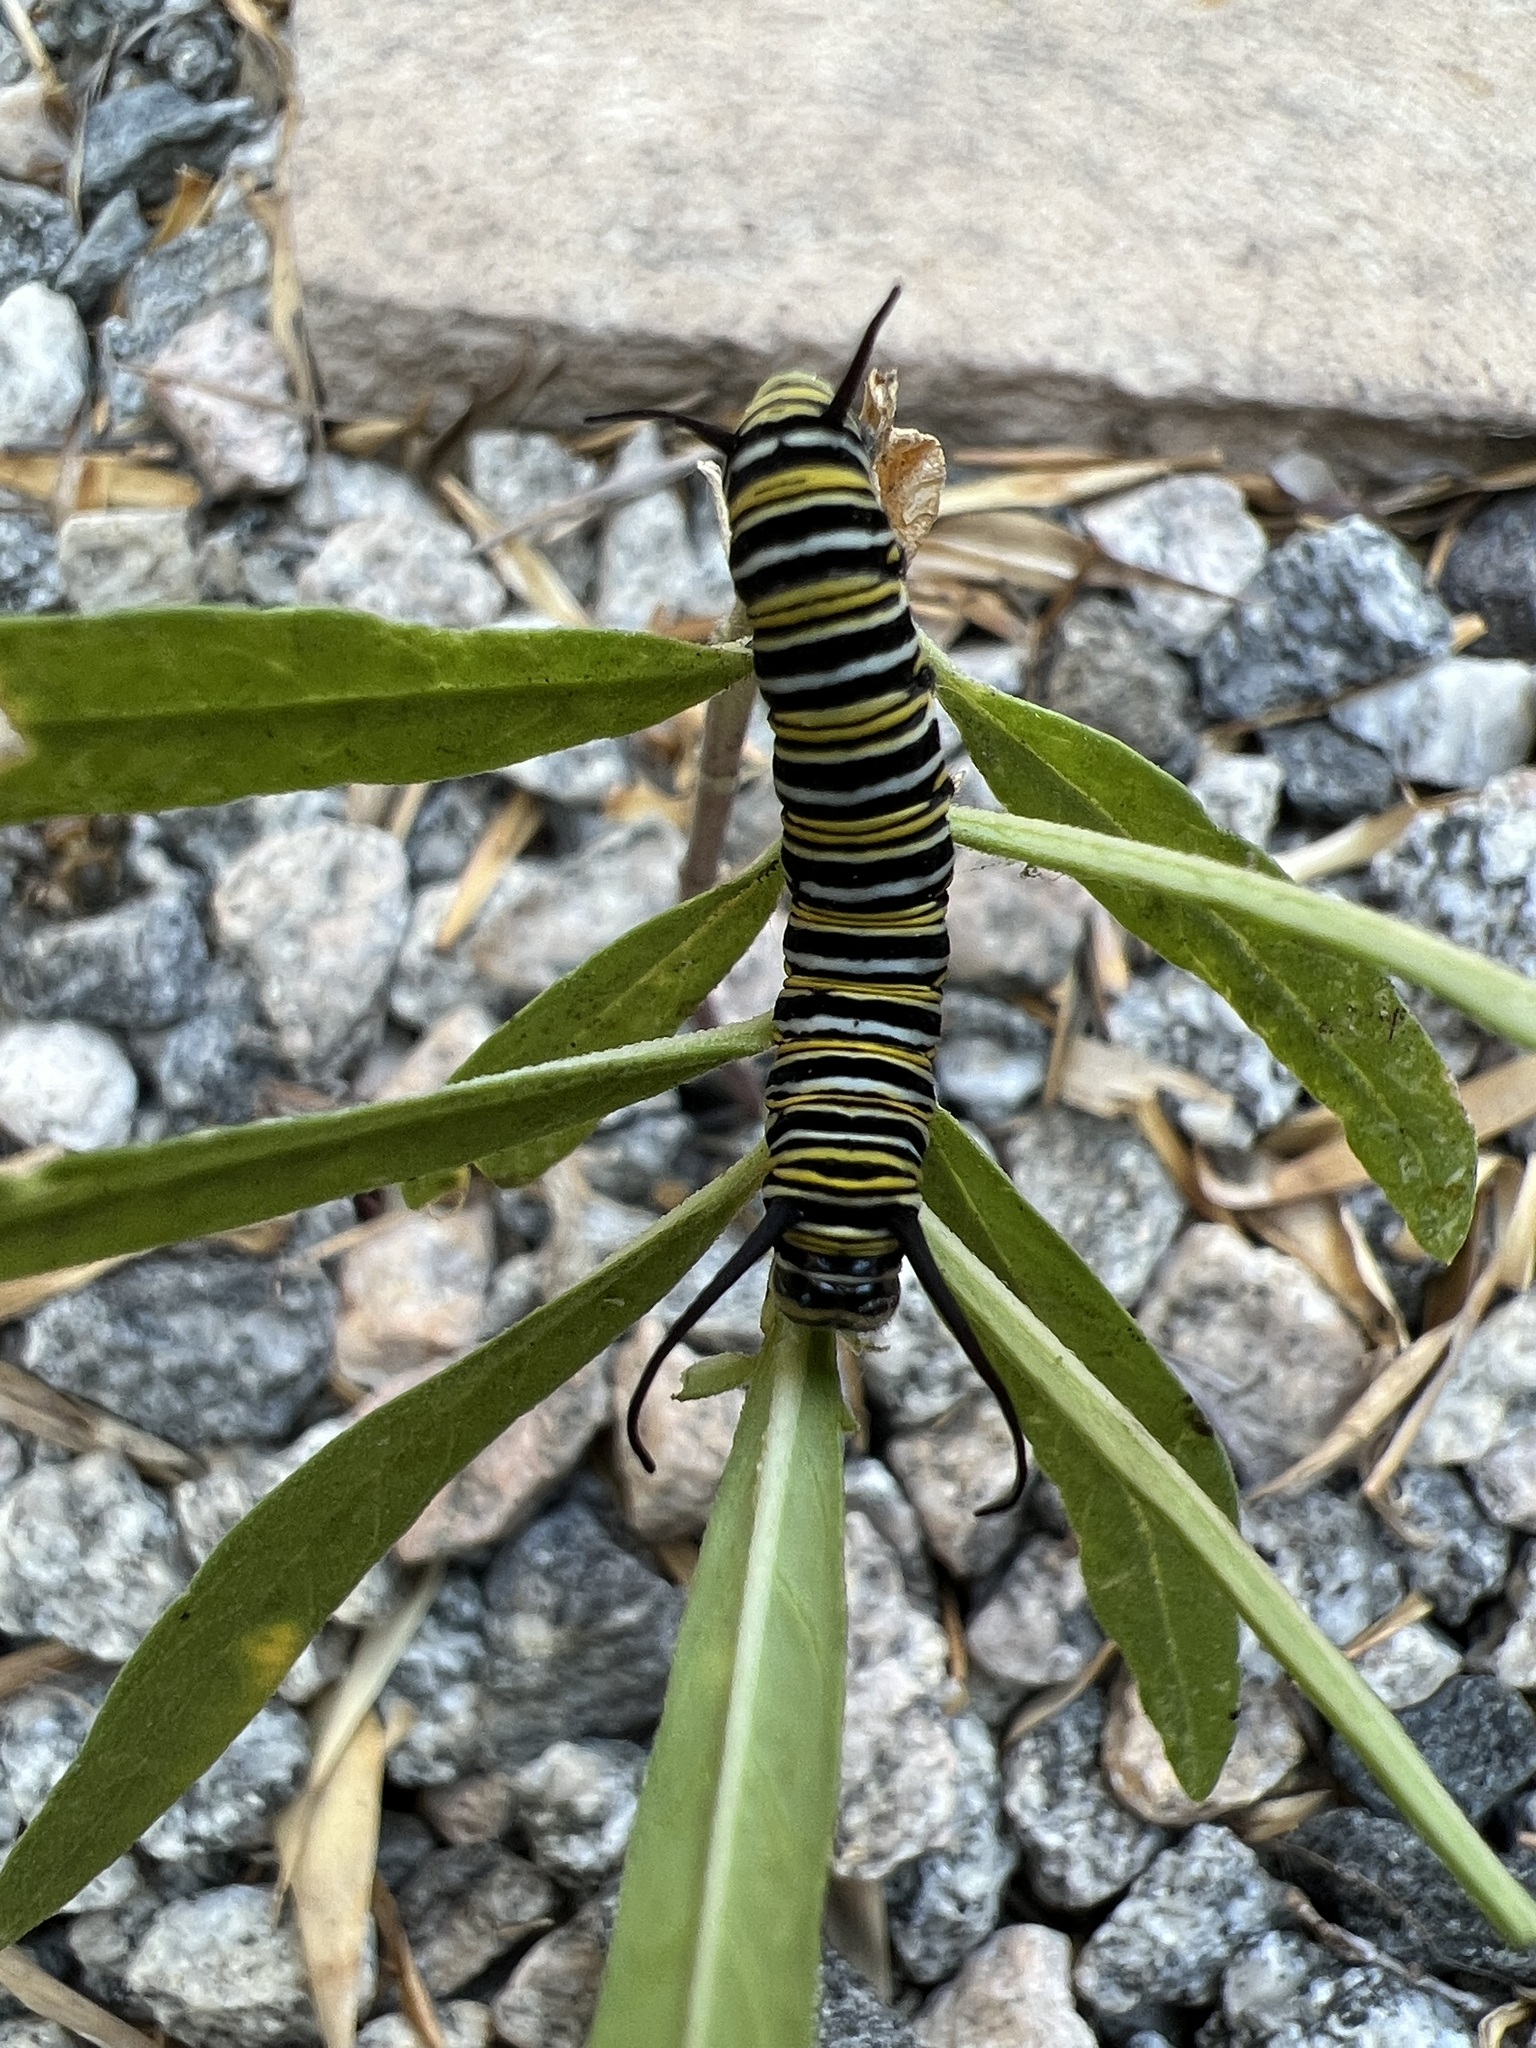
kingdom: Animalia
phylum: Arthropoda
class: Insecta
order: Lepidoptera
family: Nymphalidae
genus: Danaus
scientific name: Danaus plexippus
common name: Monarch
